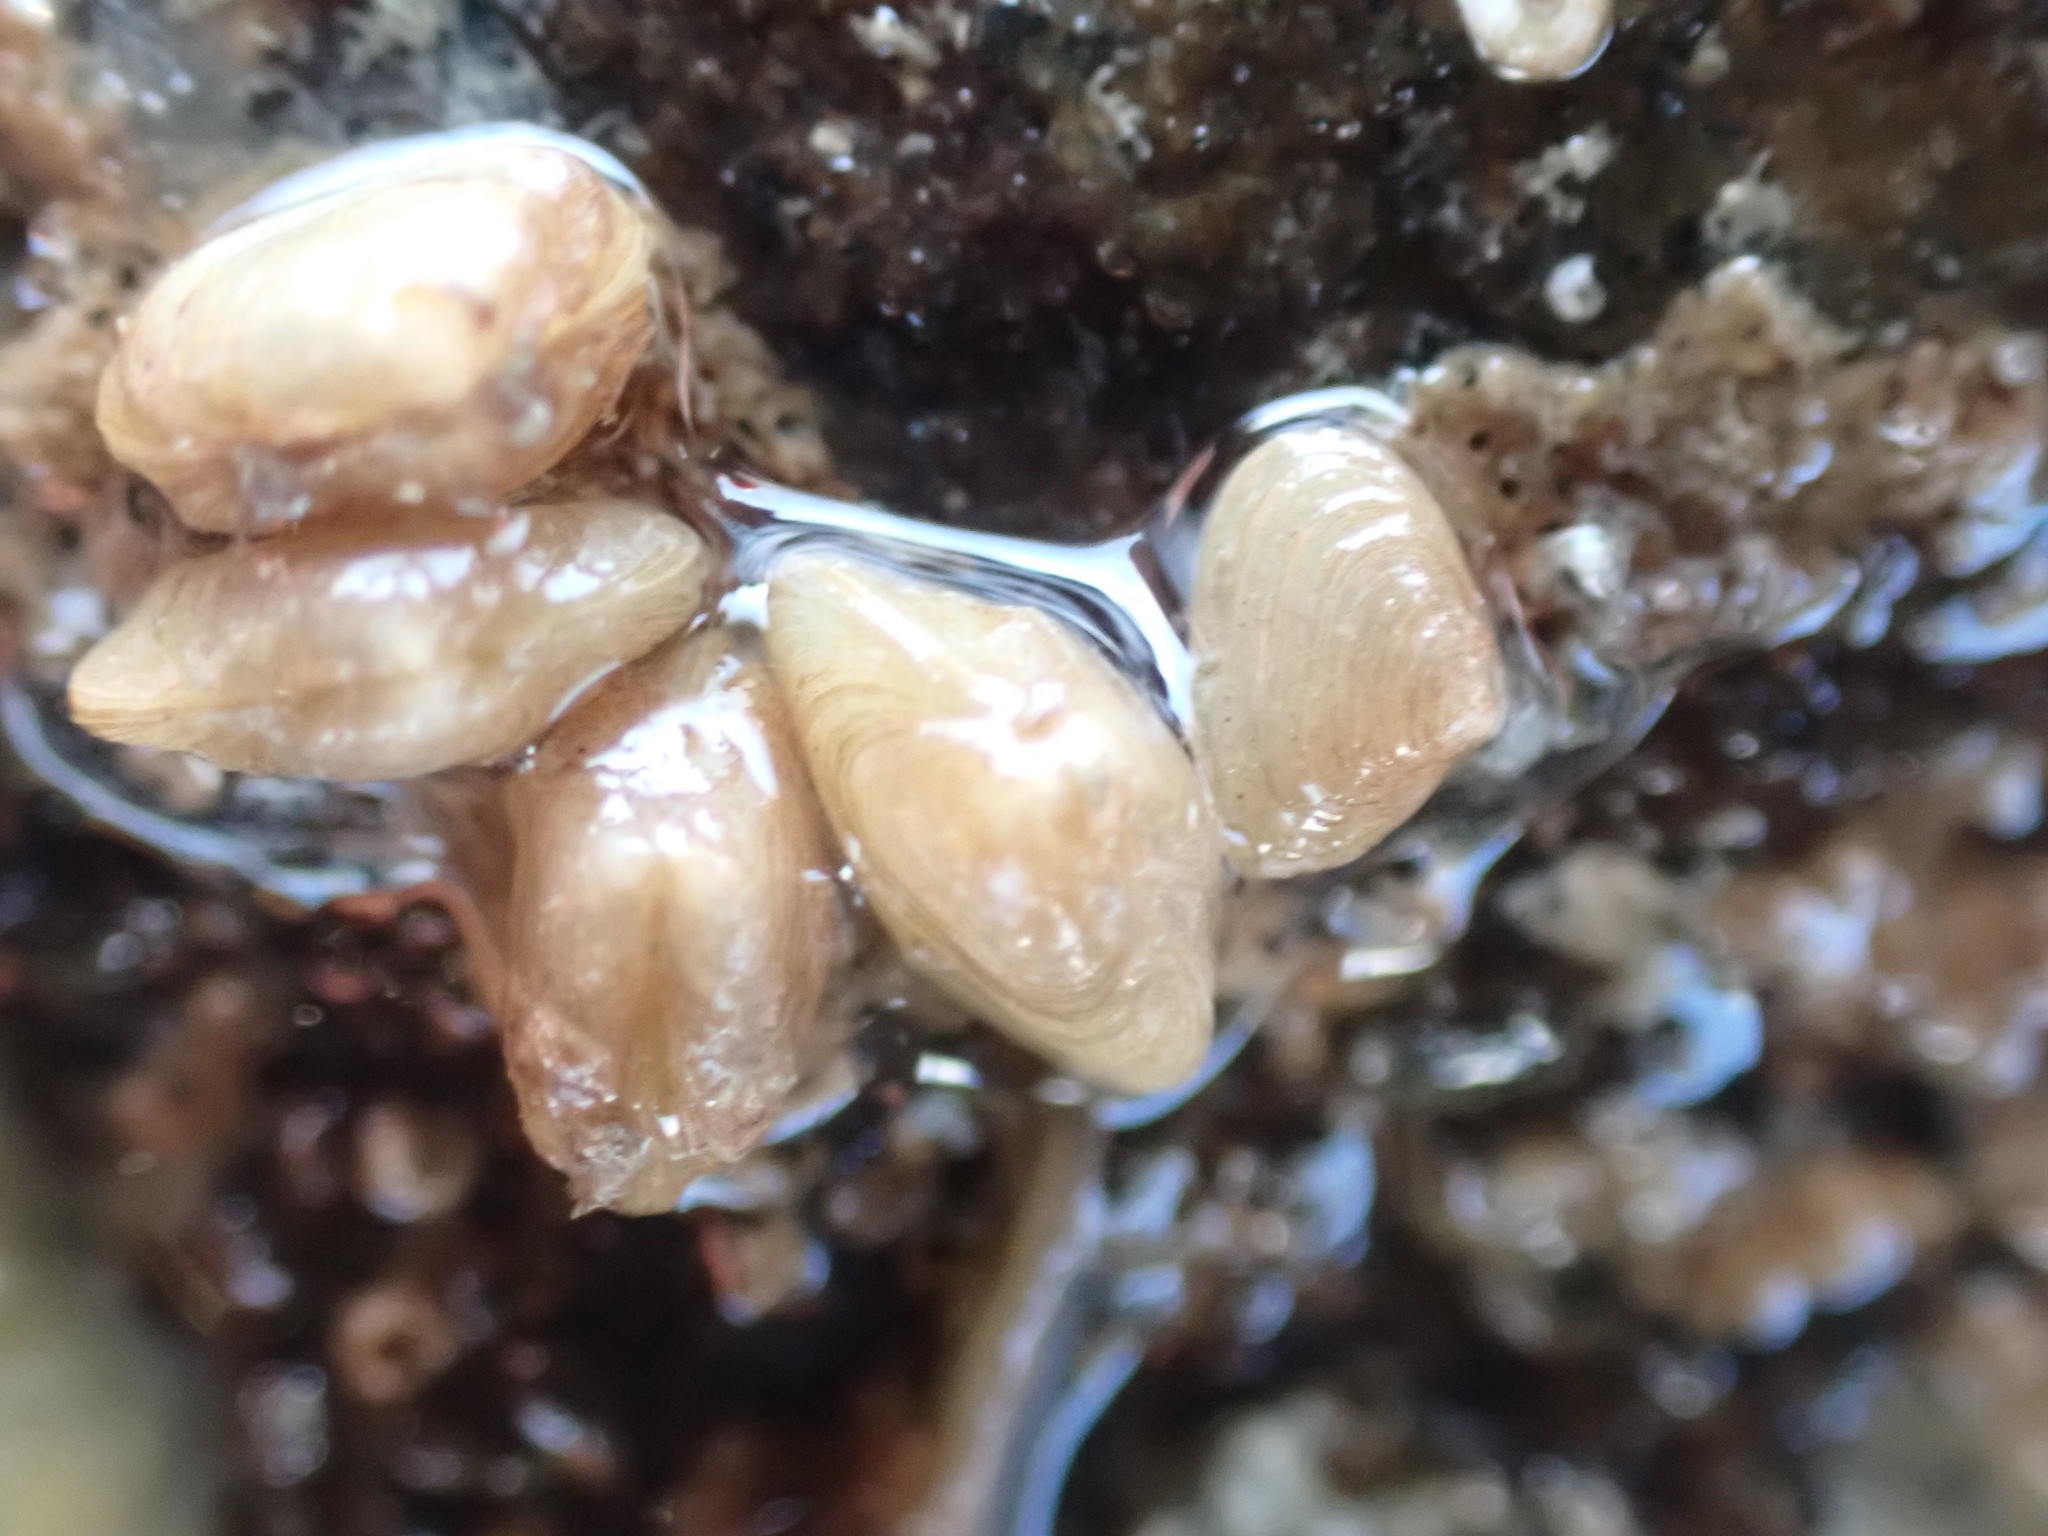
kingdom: Animalia
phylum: Mollusca
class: Bivalvia
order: Galeommatida
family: Lasaeidae
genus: Borniola
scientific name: Borniola reniformis
